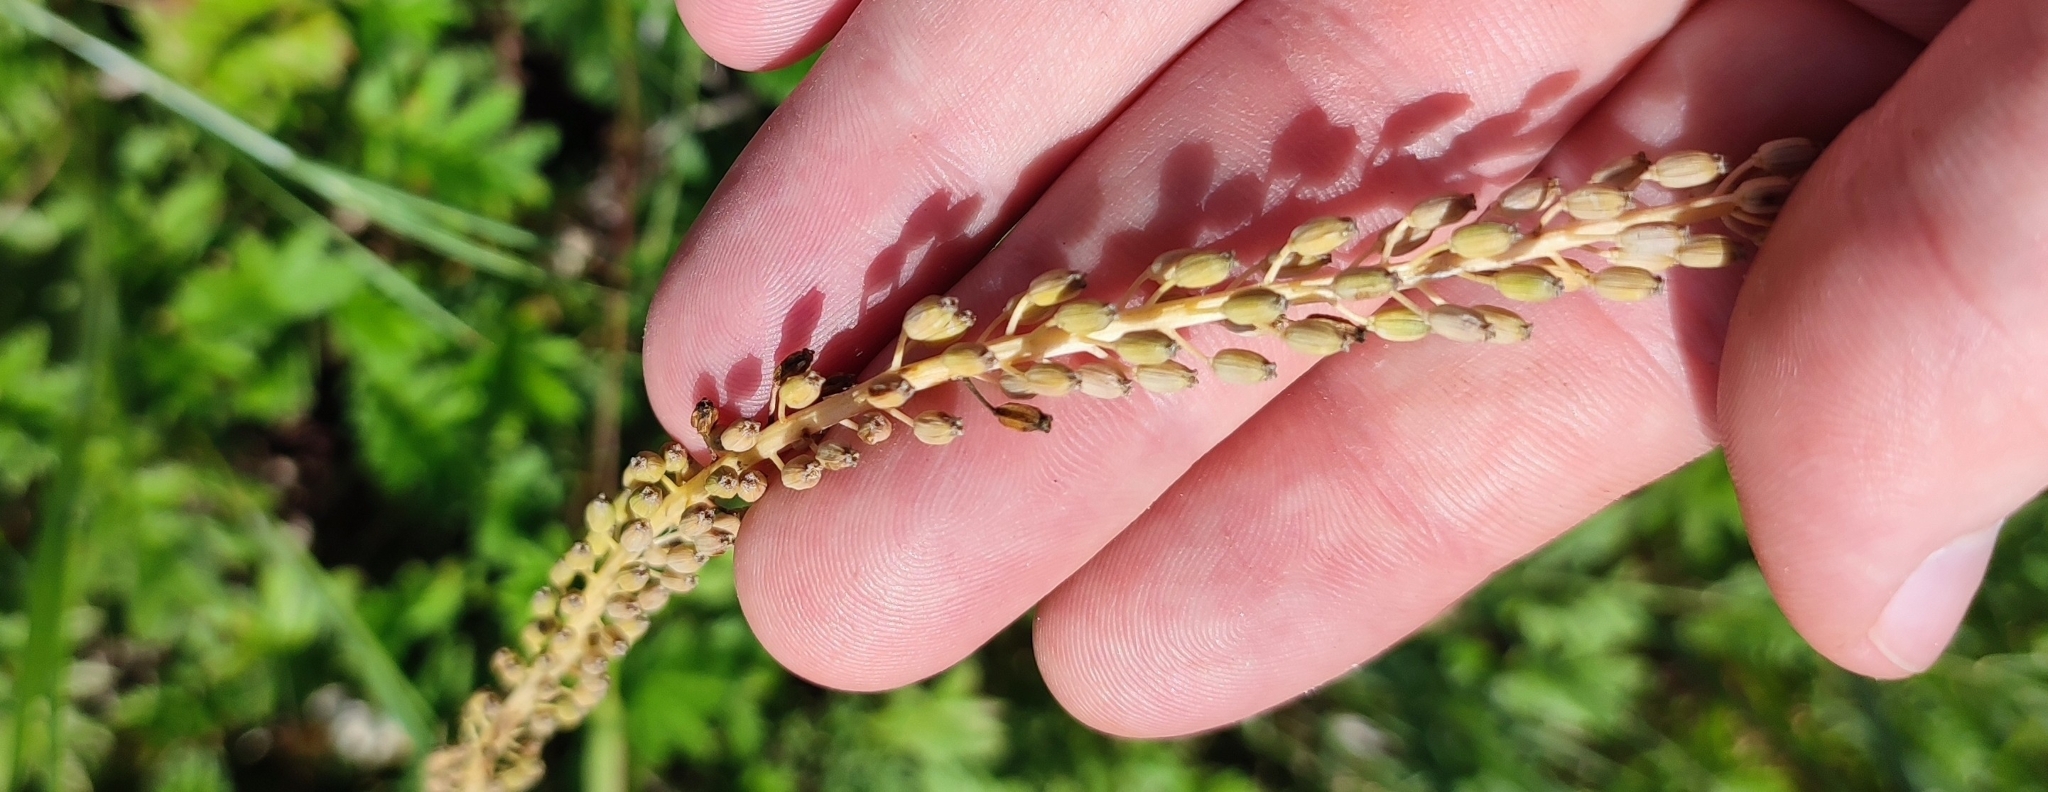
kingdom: Plantae
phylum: Tracheophyta
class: Liliopsida
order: Alismatales
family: Juncaginaceae
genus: Triglochin
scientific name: Triglochin maritima
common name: Sea arrowgrass
